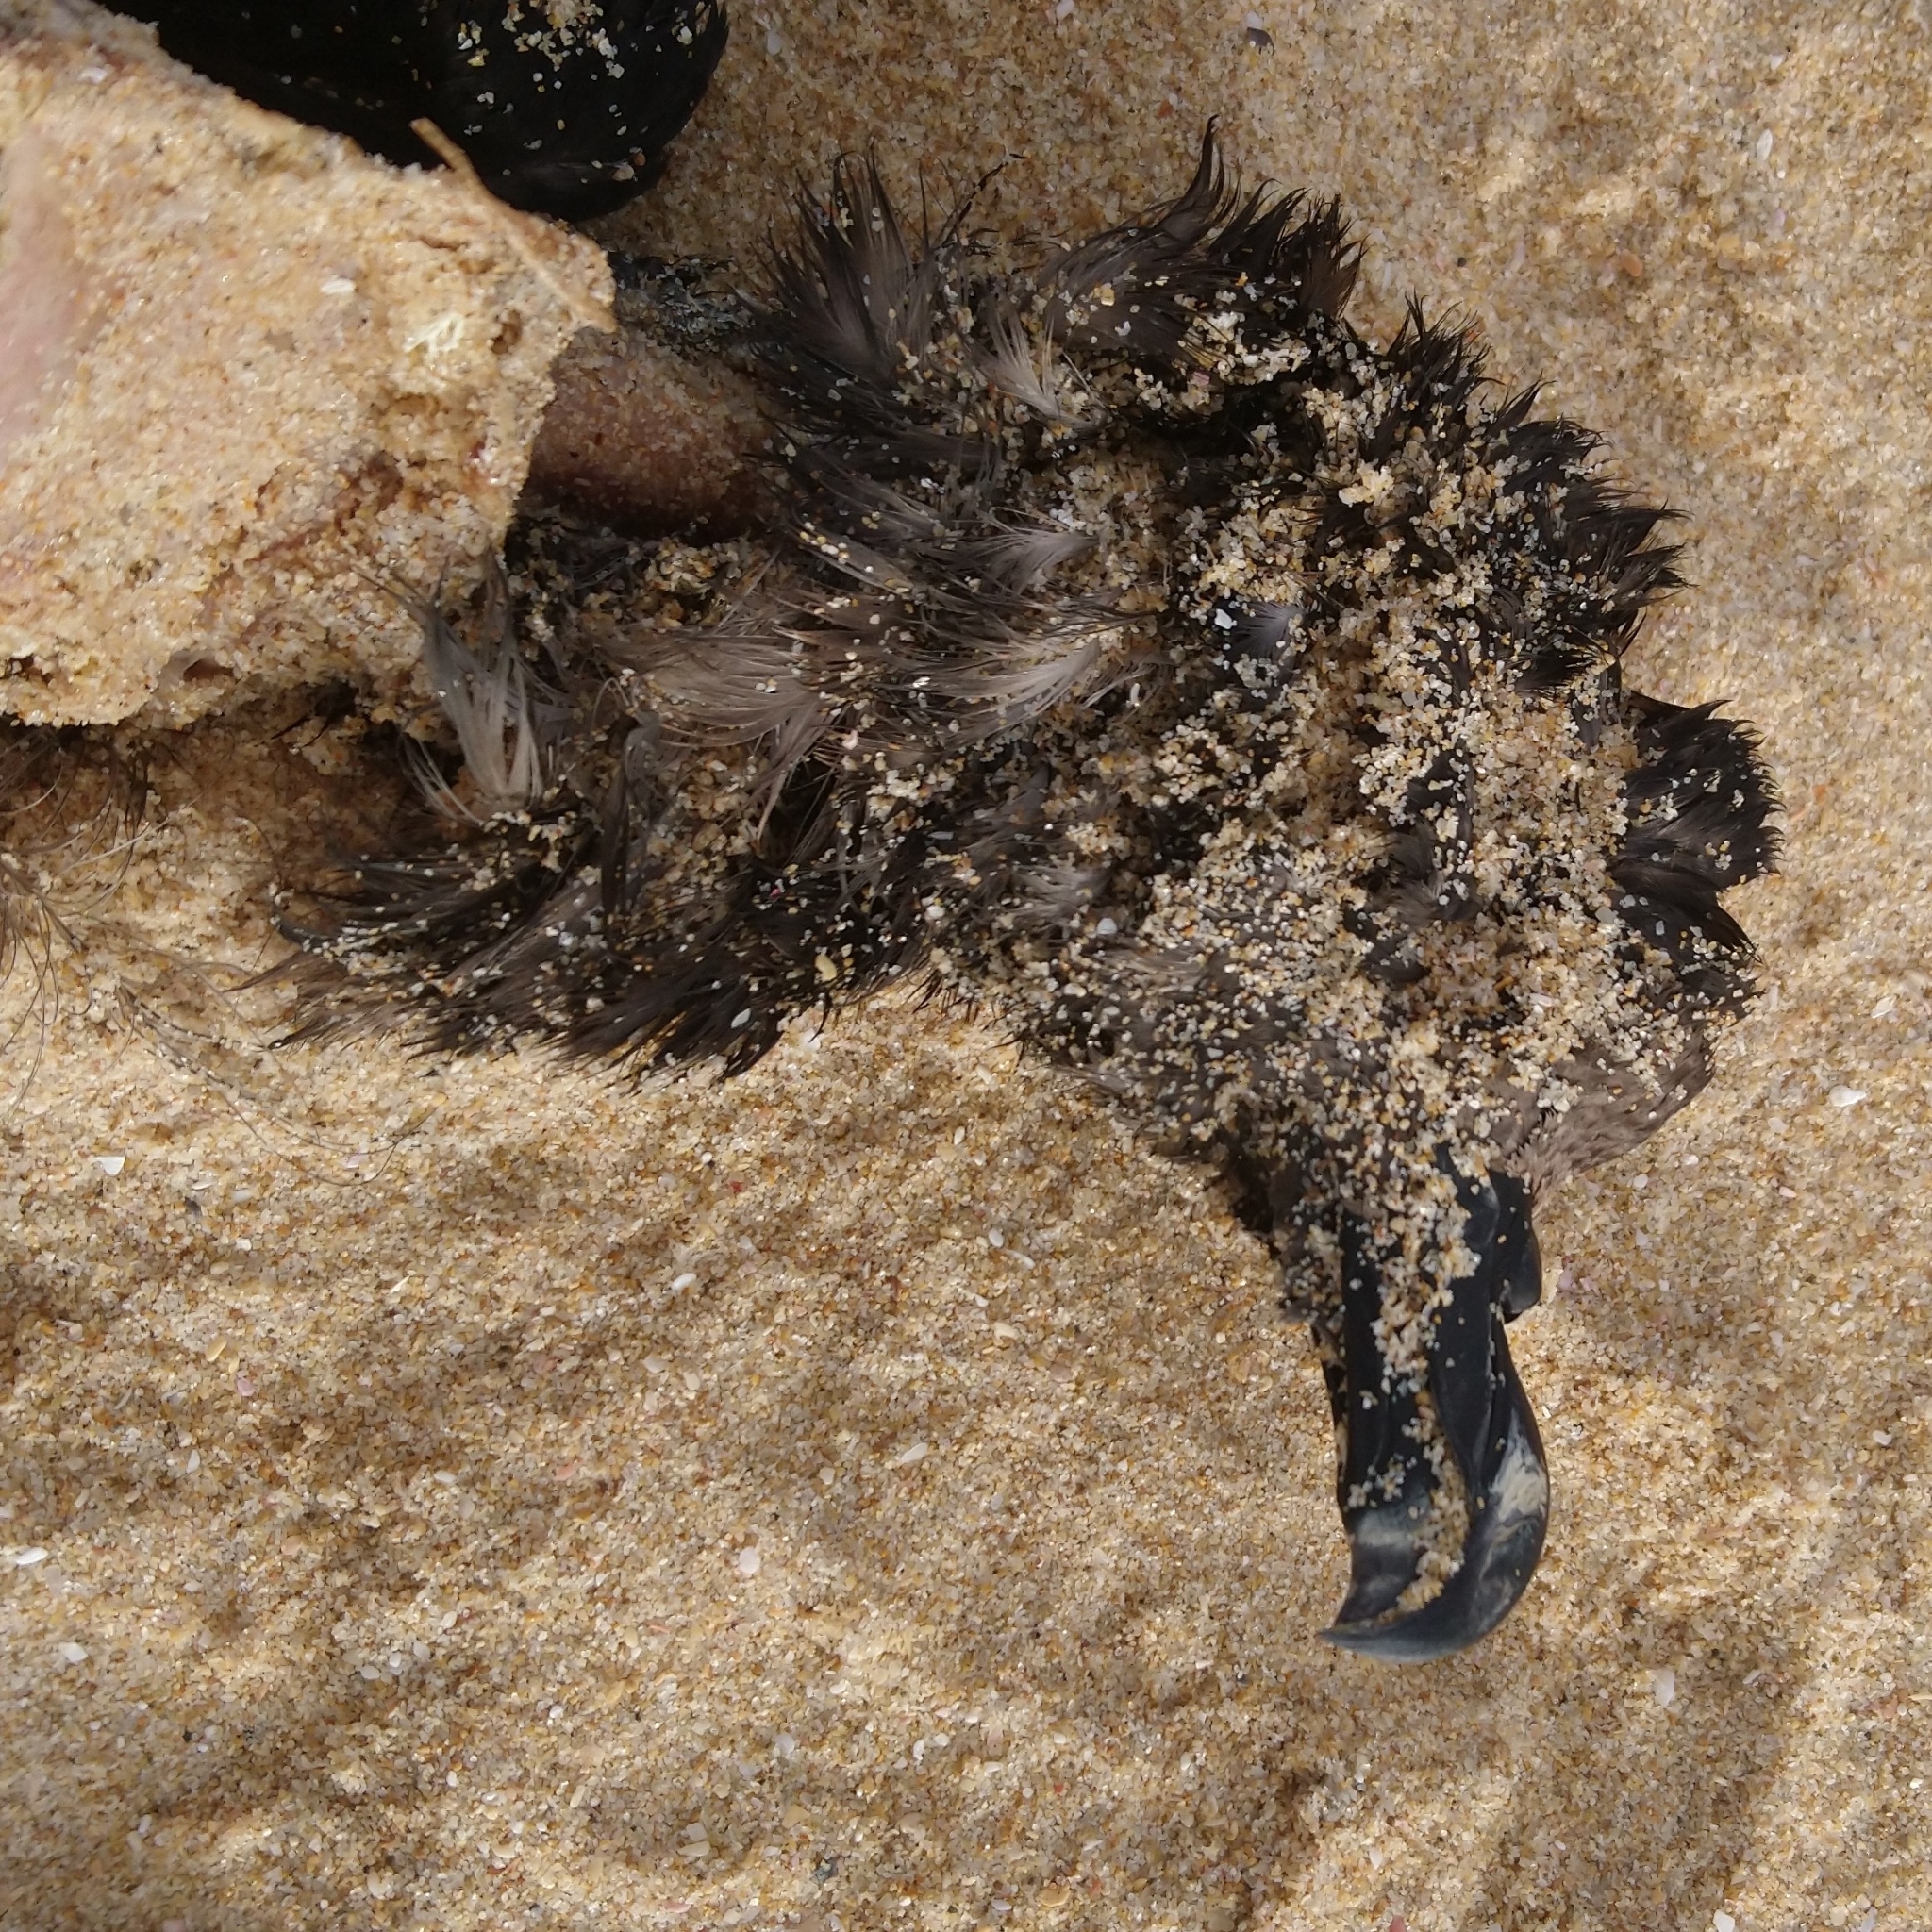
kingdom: Animalia
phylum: Chordata
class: Aves
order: Procellariiformes
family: Procellariidae
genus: Pterodroma
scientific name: Pterodroma macroptera
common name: Great-winged petrel
